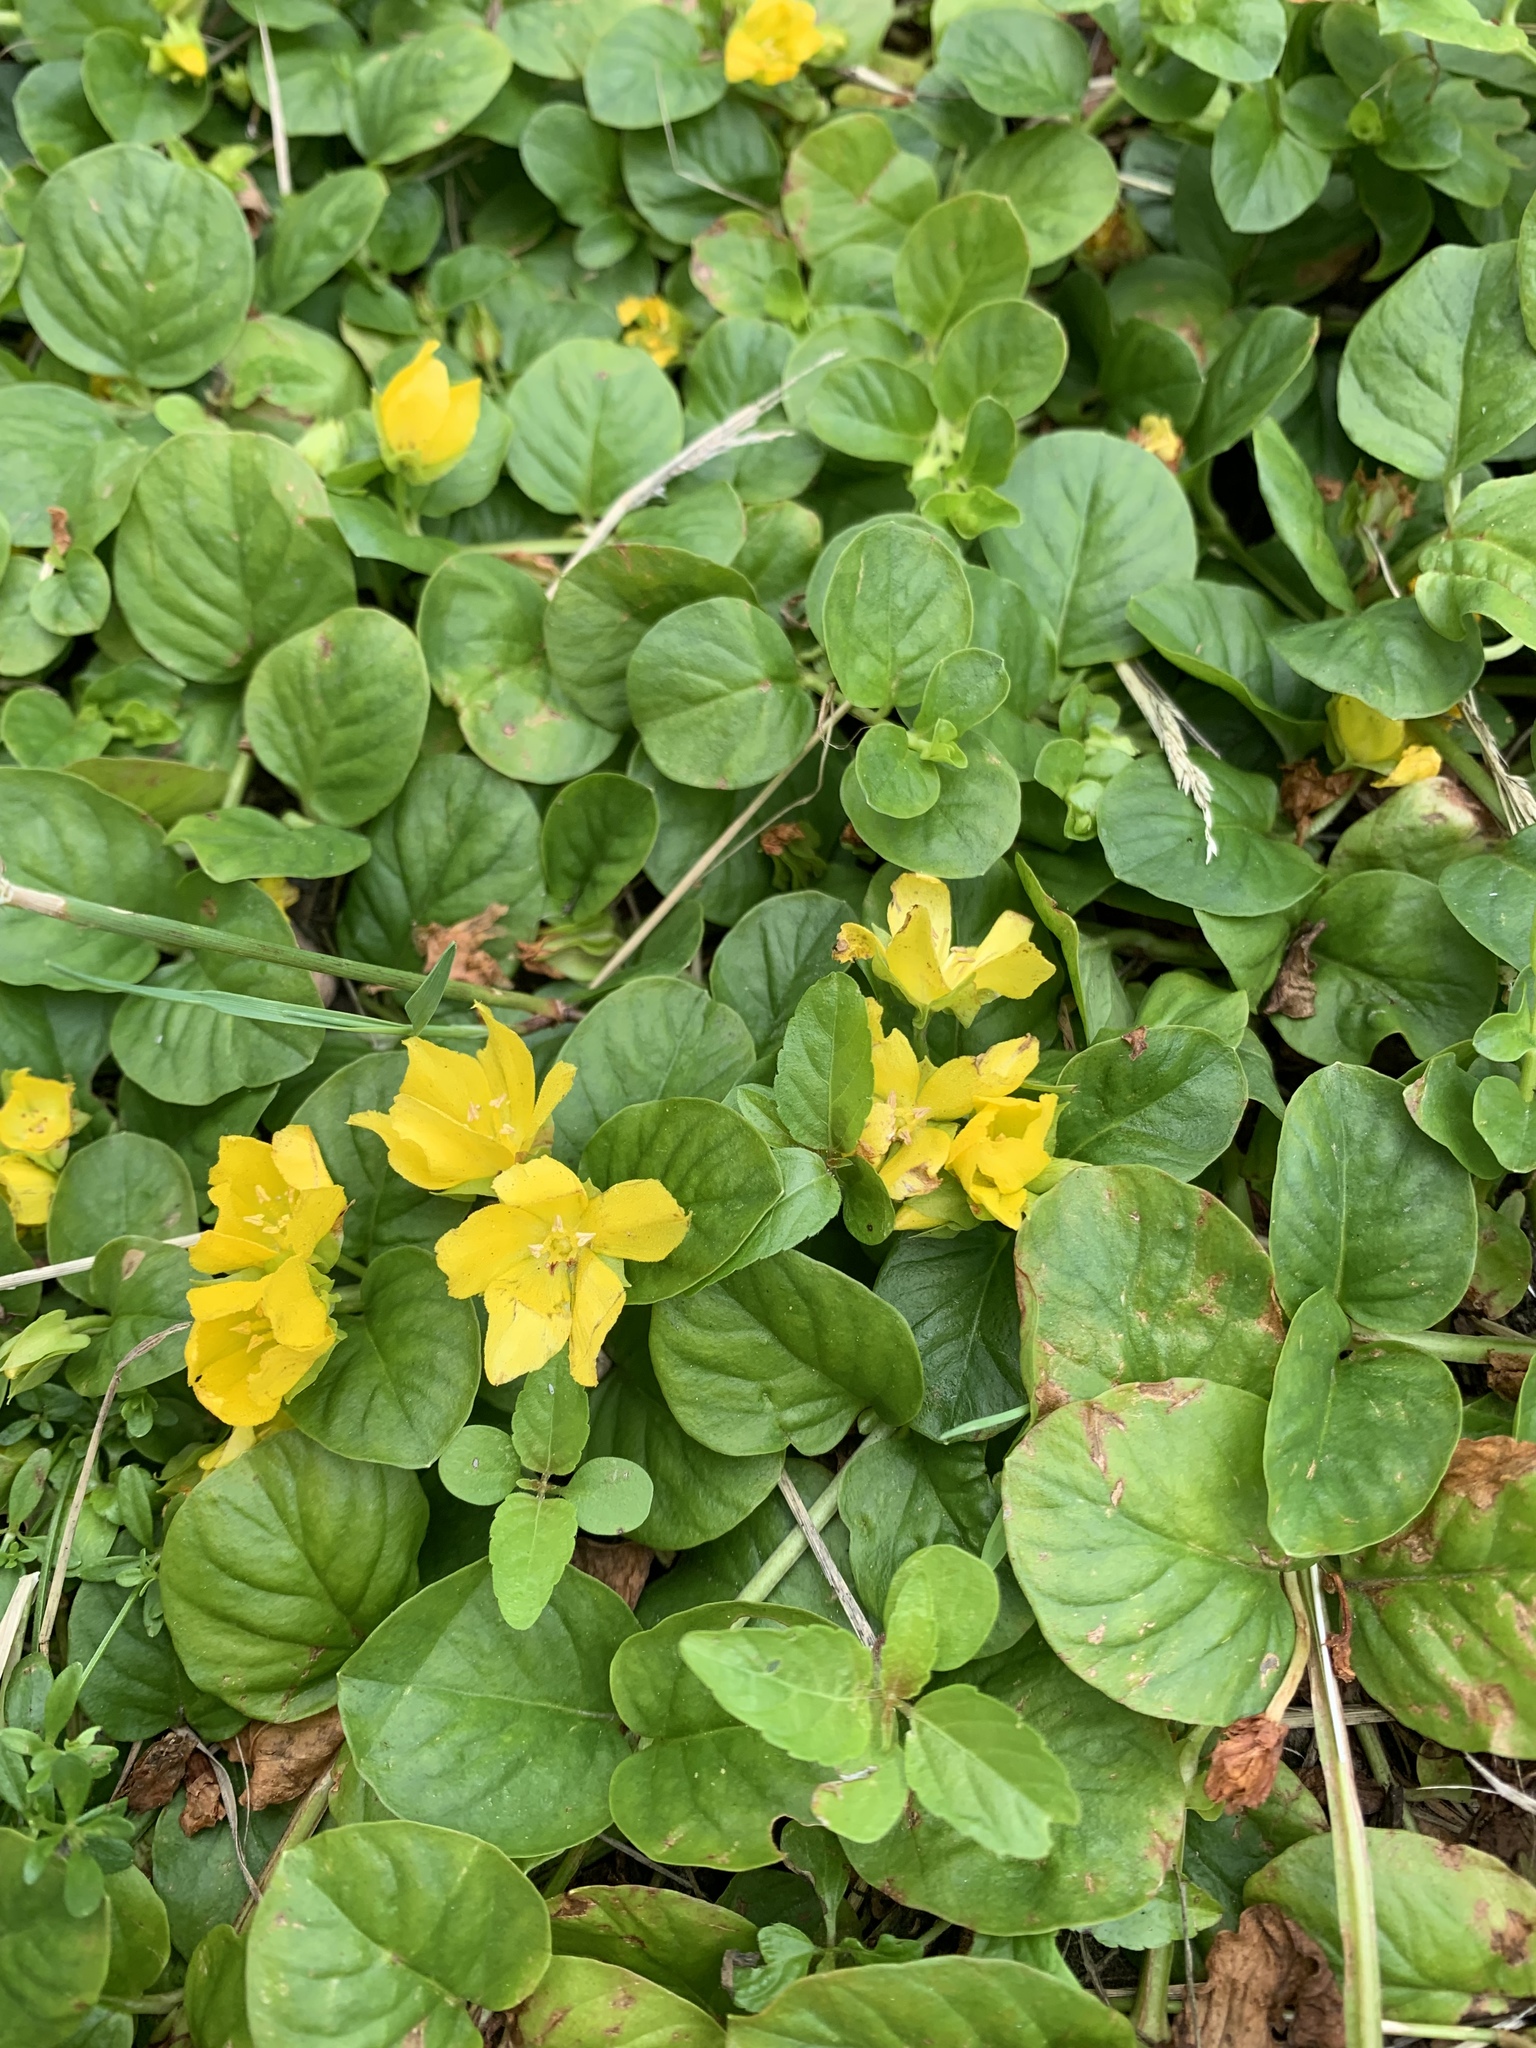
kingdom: Plantae
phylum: Tracheophyta
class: Magnoliopsida
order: Ericales
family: Primulaceae
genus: Lysimachia
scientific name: Lysimachia nummularia
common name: Moneywort
